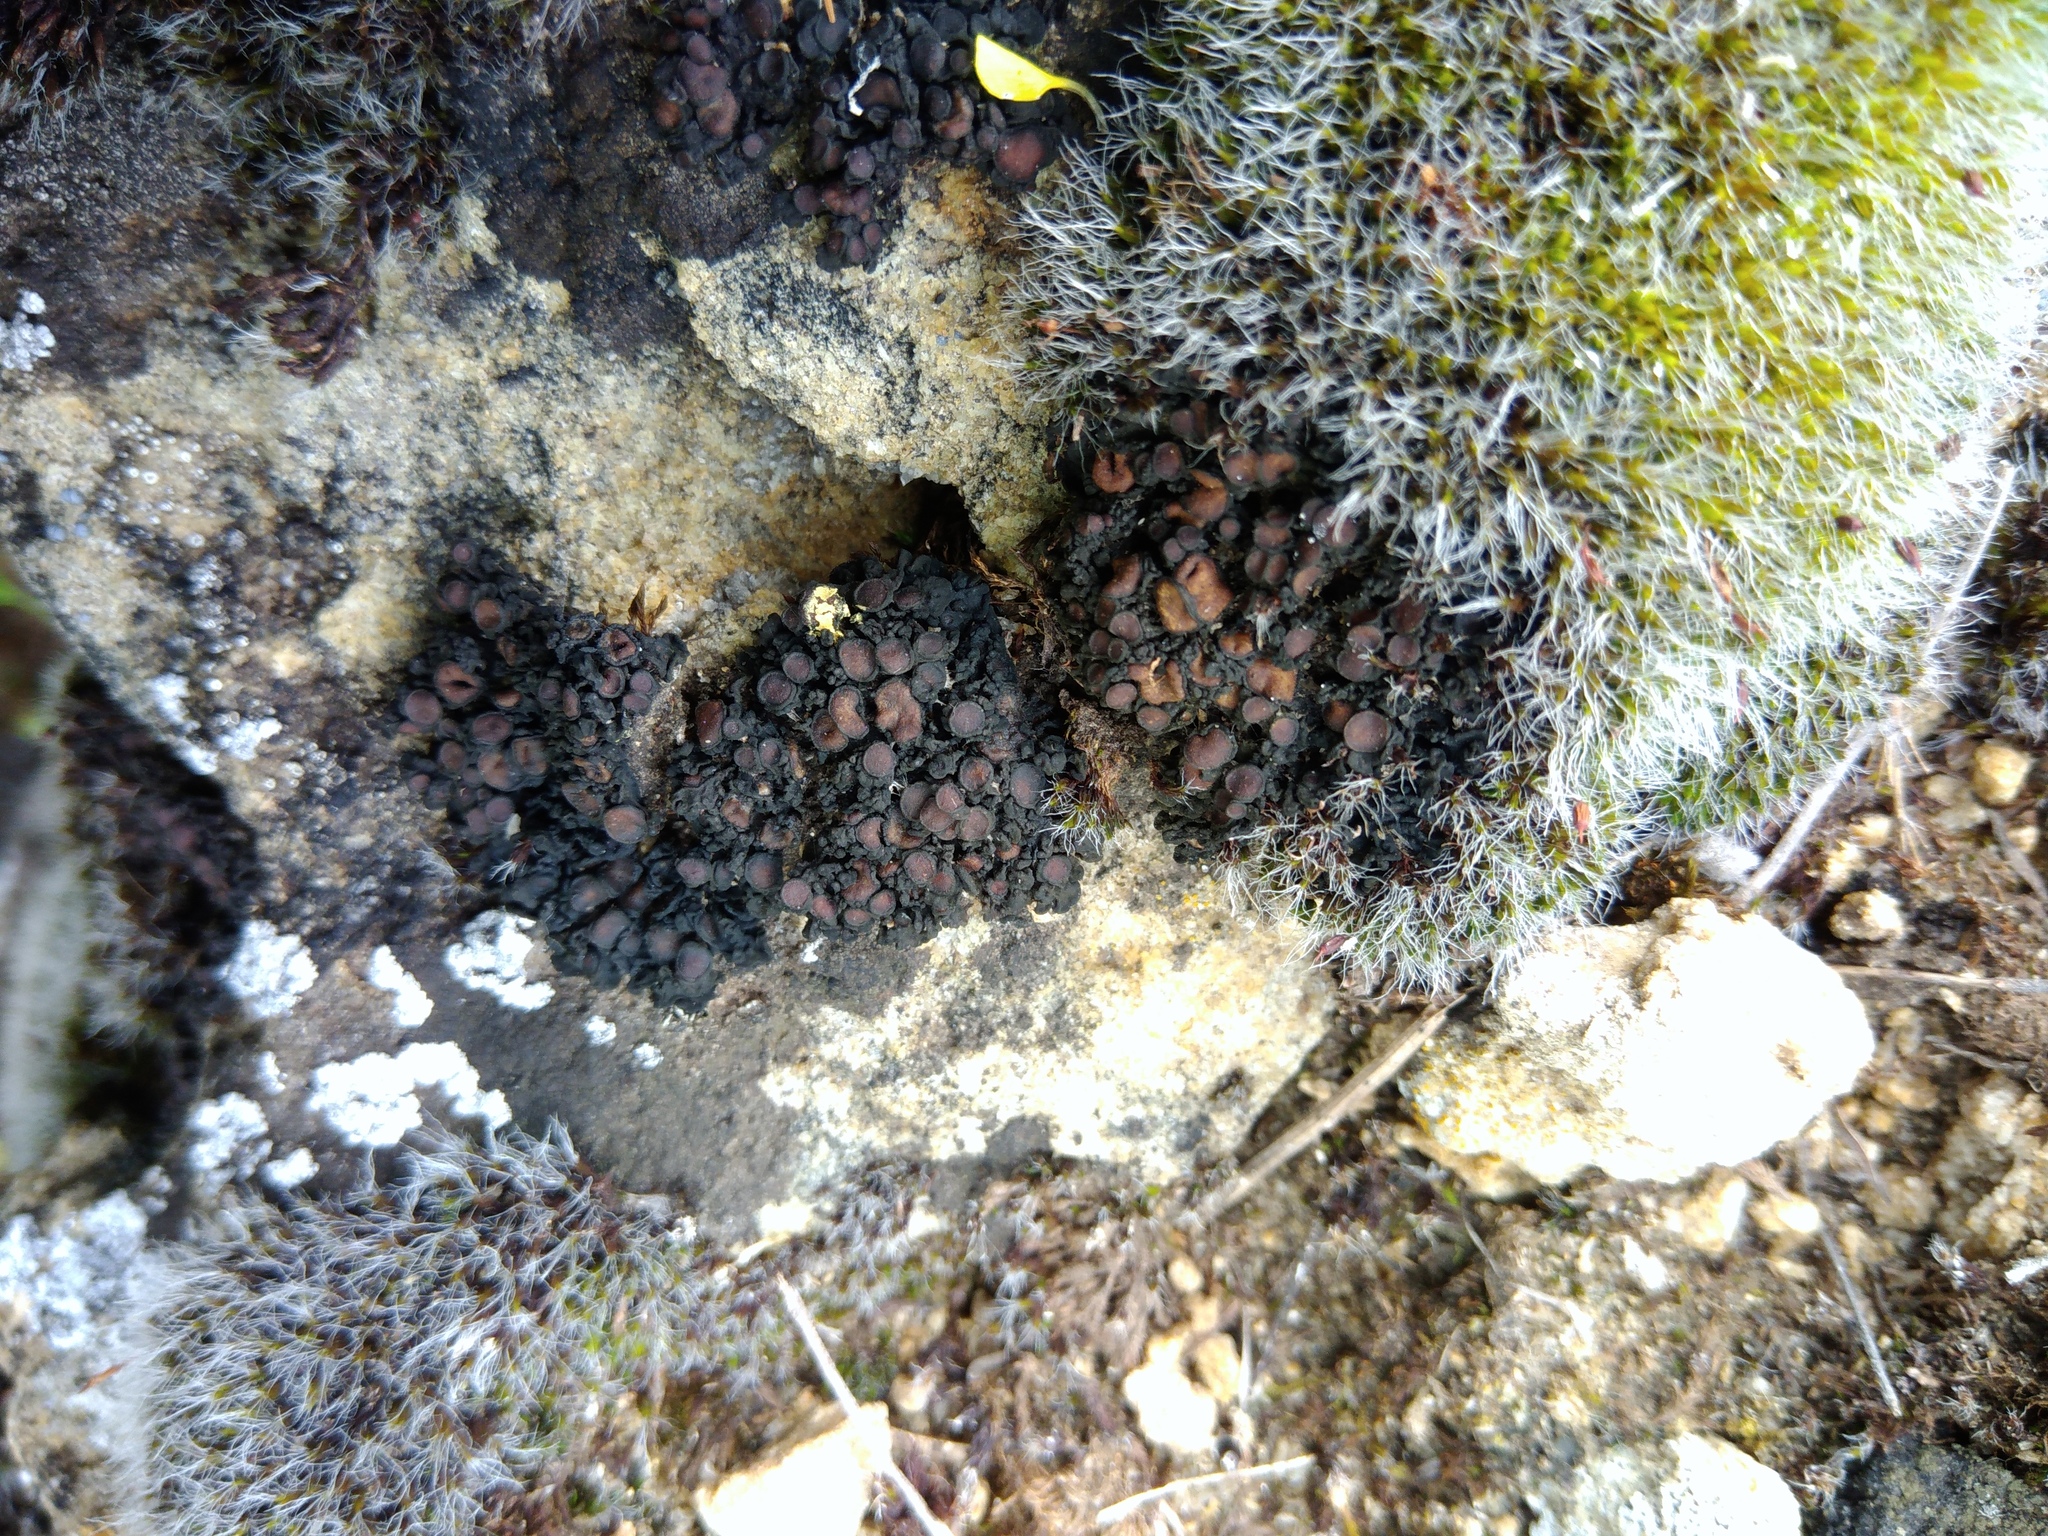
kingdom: Fungi
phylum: Ascomycota
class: Lecanoromycetes
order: Peltigerales
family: Collemataceae
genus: Enchylium
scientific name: Enchylium tenax
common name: Jelly lichen
